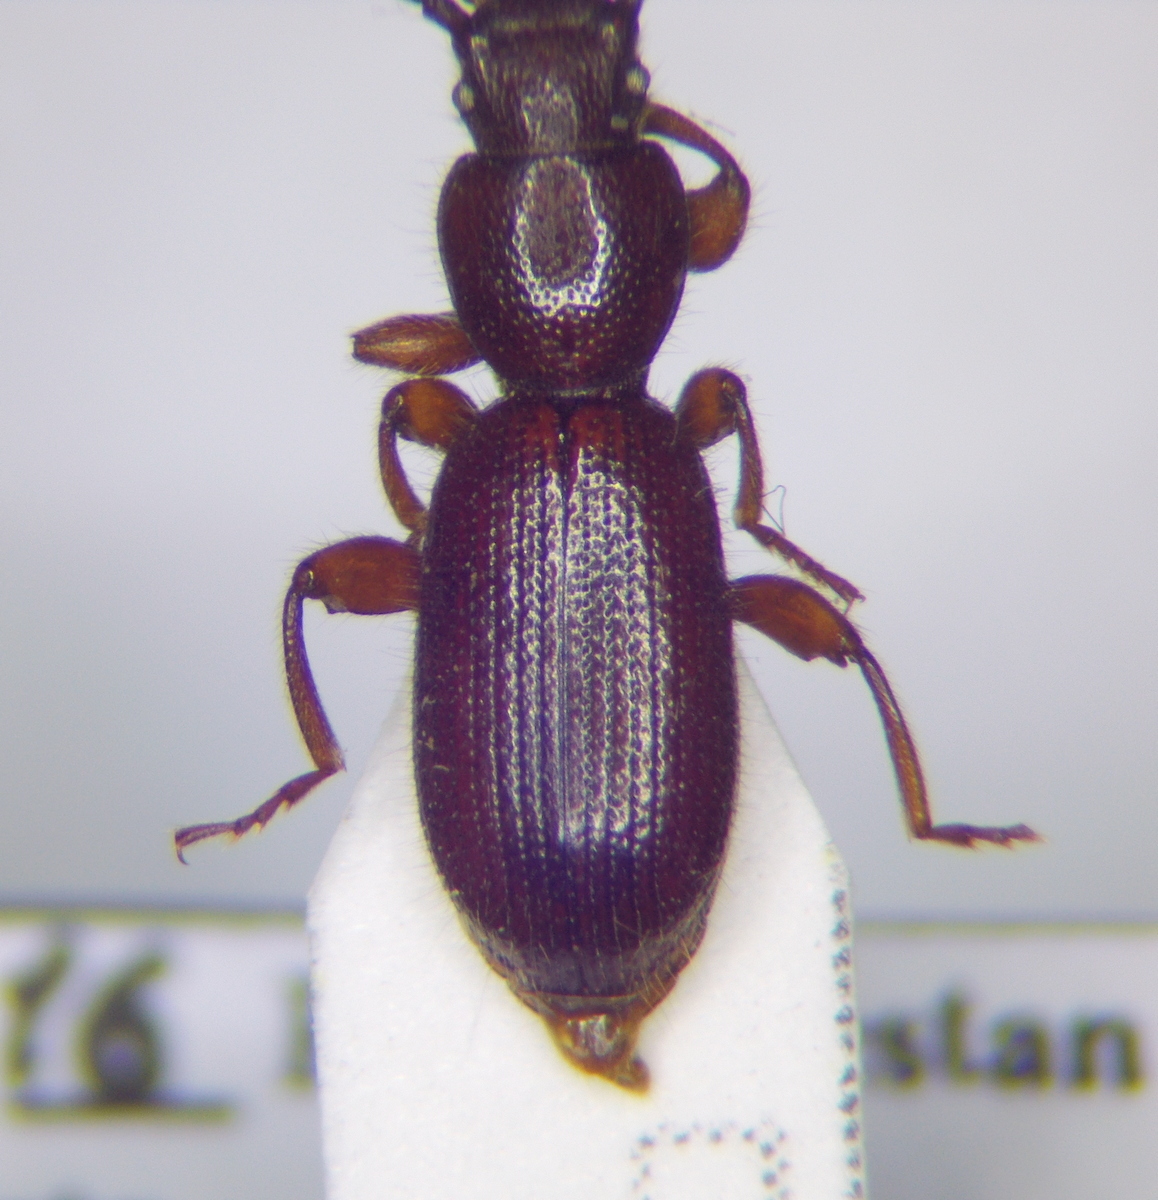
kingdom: Animalia
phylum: Arthropoda
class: Insecta
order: Coleoptera
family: Tenebrionidae
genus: Laena
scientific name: Laena hirtipes
